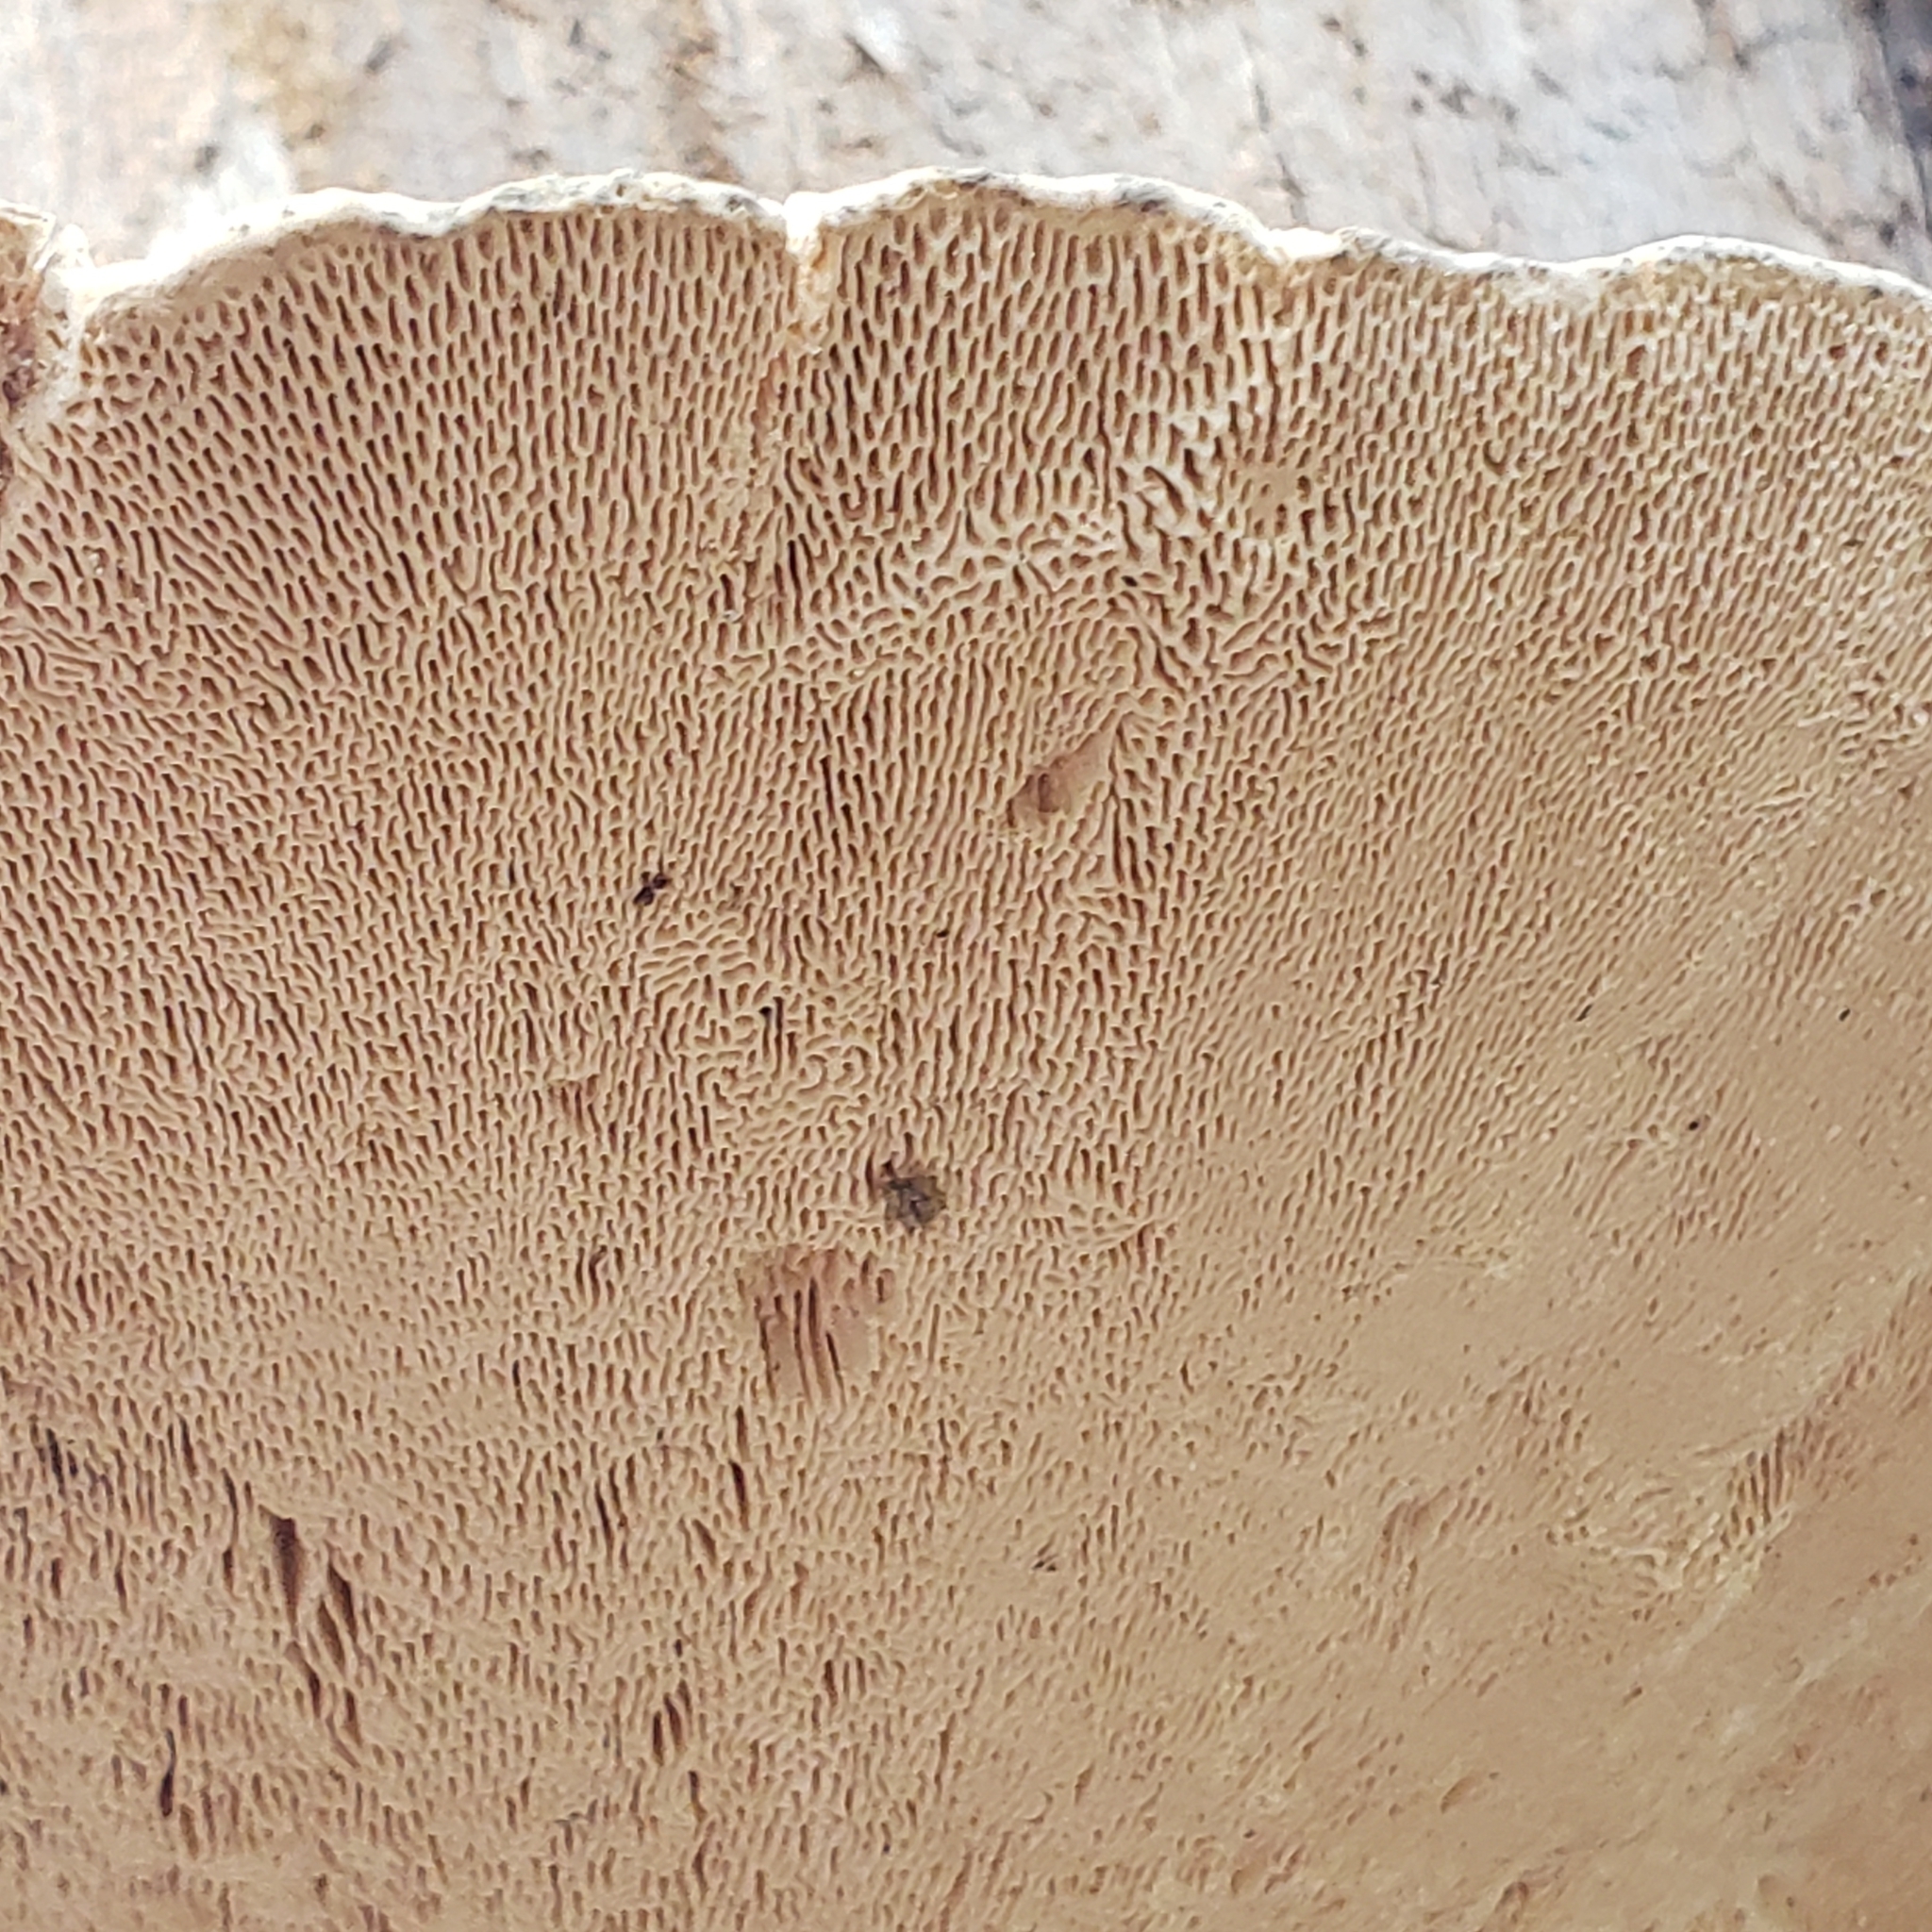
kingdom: Fungi
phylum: Basidiomycota
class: Agaricomycetes
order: Polyporales
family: Polyporaceae
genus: Trametes
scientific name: Trametes gibbosa
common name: Lumpy bracket
